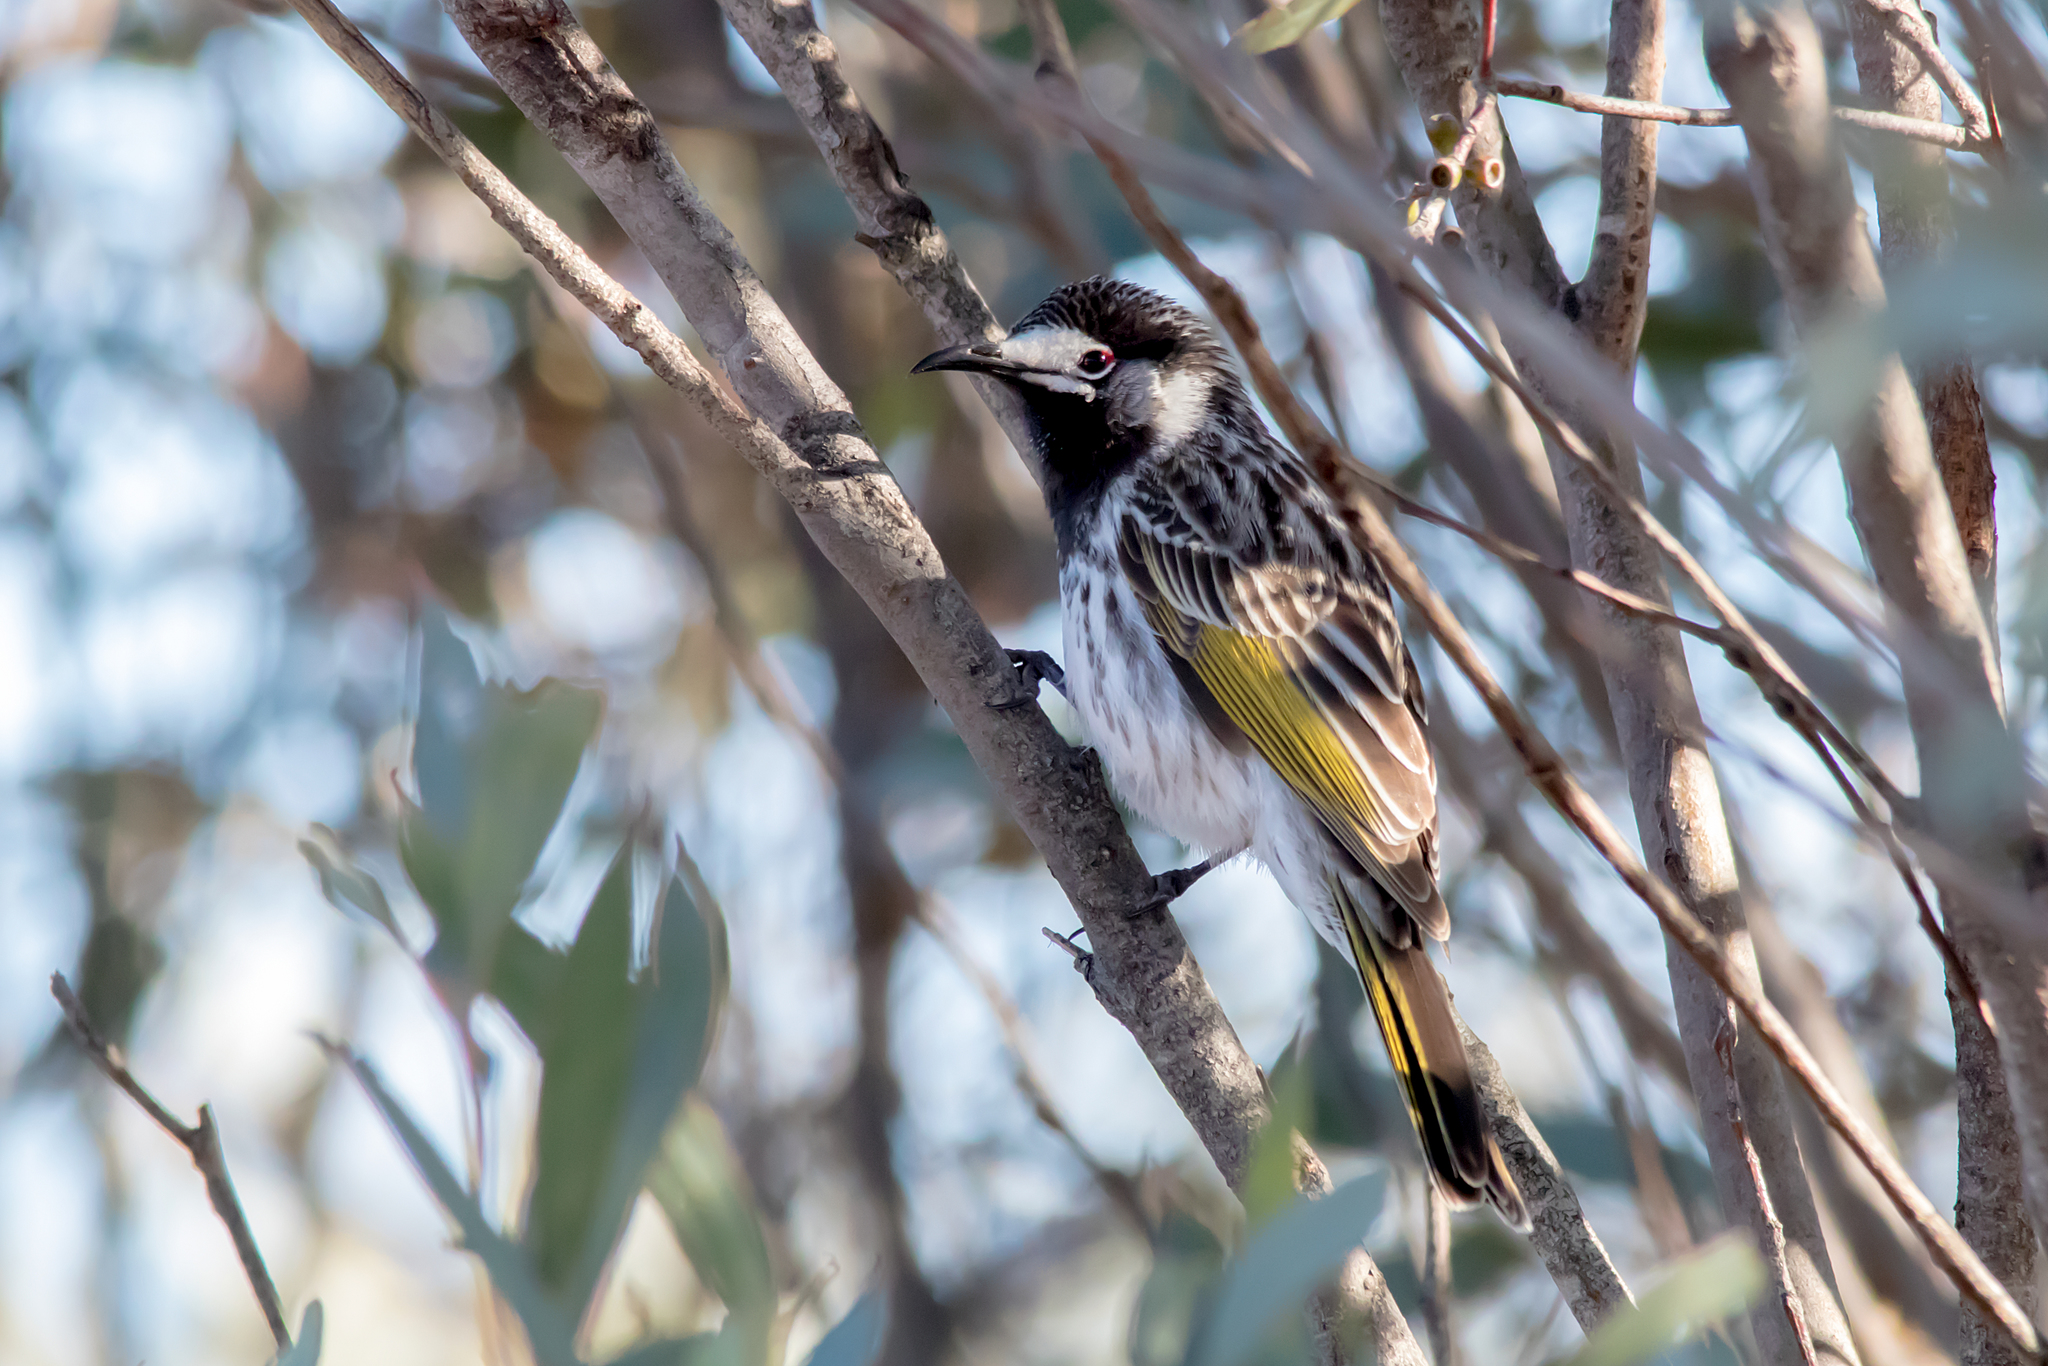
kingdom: Animalia
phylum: Chordata
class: Aves
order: Passeriformes
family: Meliphagidae
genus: Purnella
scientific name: Purnella albifrons
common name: White-fronted honeyeater
